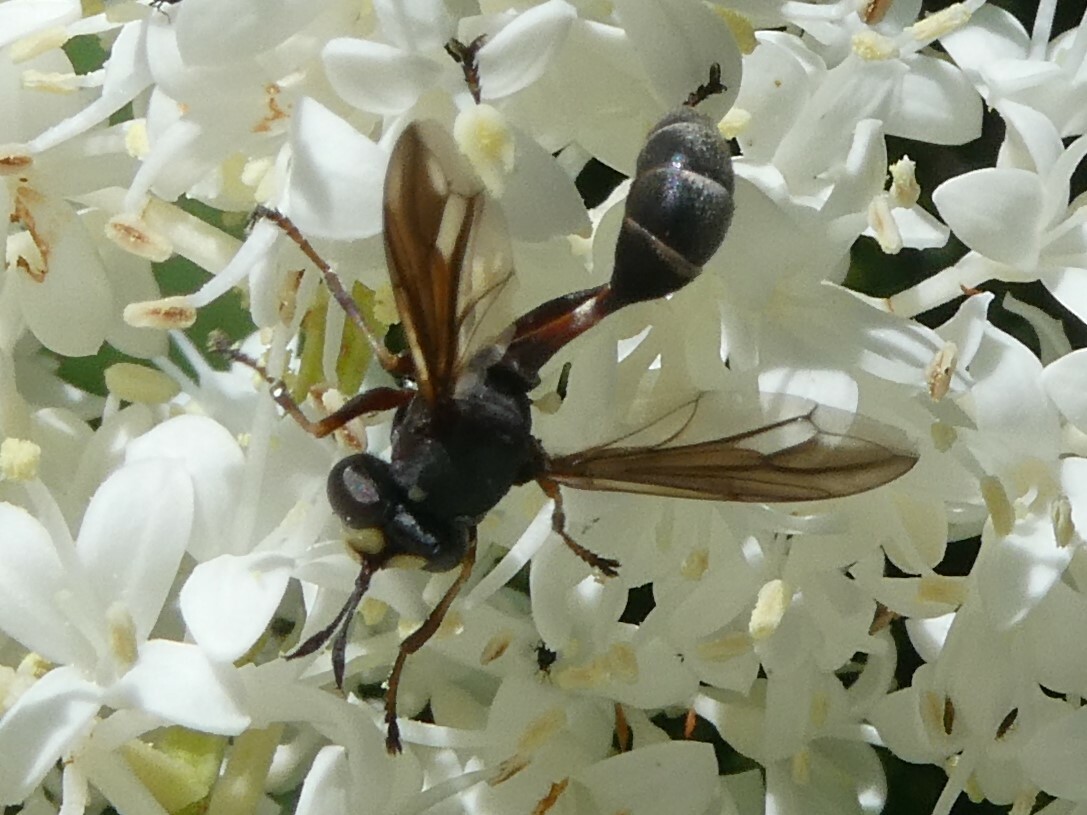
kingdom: Animalia
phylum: Arthropoda
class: Insecta
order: Diptera
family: Conopidae
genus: Physocephala
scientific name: Physocephala furcillata
